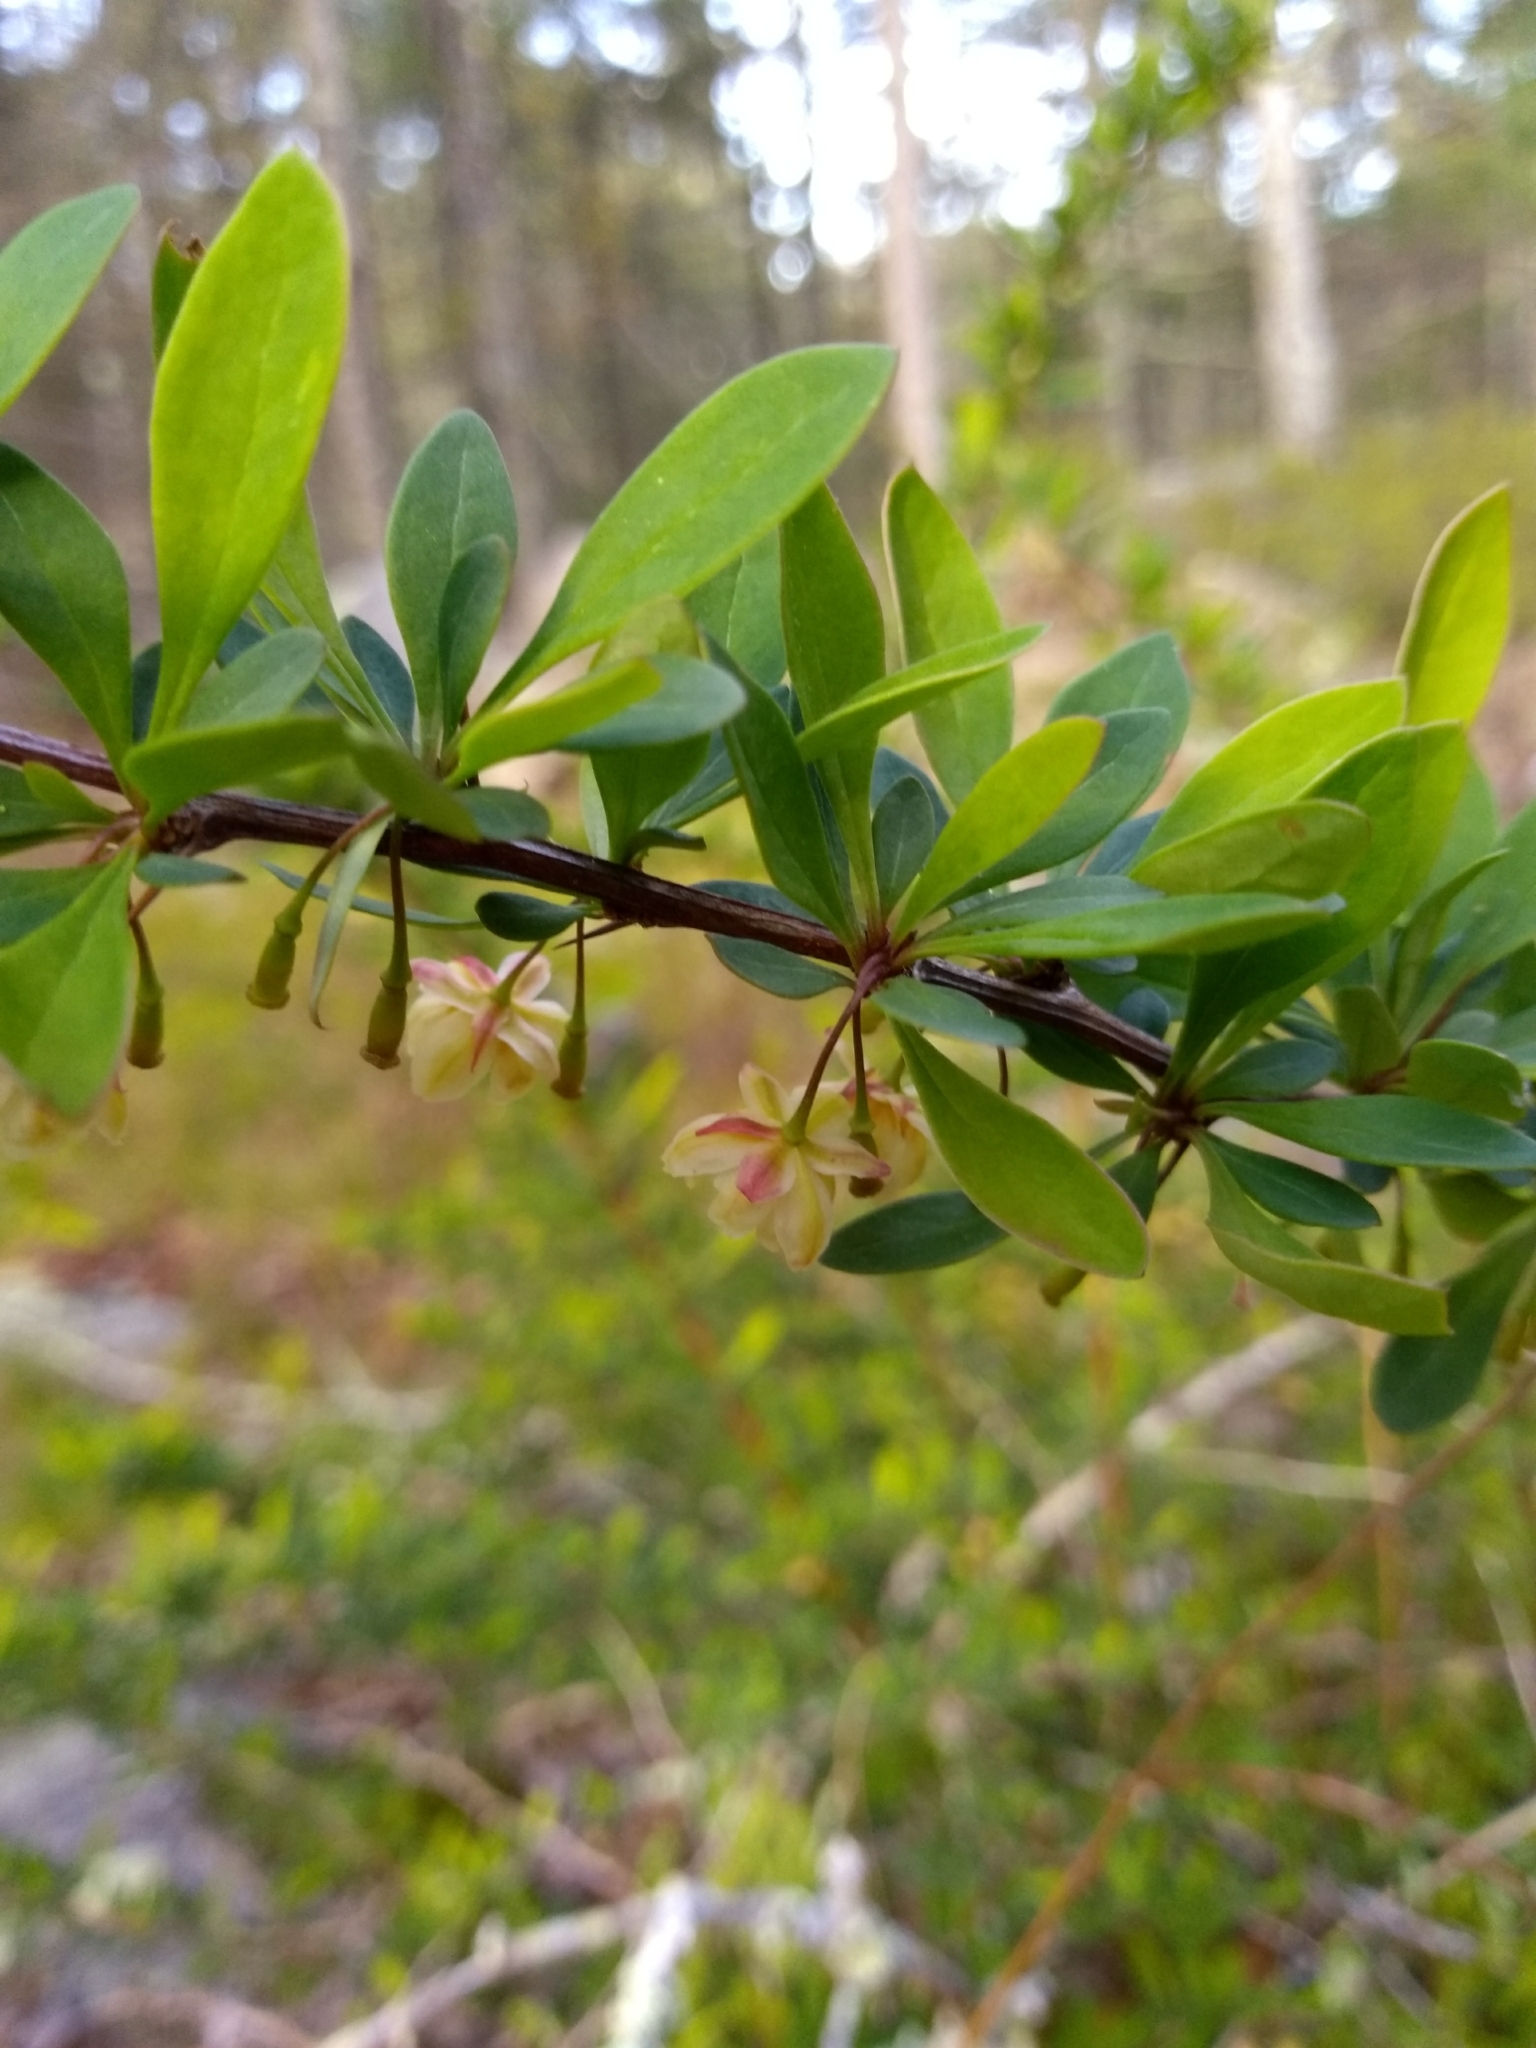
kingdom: Plantae
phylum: Tracheophyta
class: Magnoliopsida
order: Ranunculales
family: Berberidaceae
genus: Berberis
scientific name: Berberis thunbergii
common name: Japanese barberry
